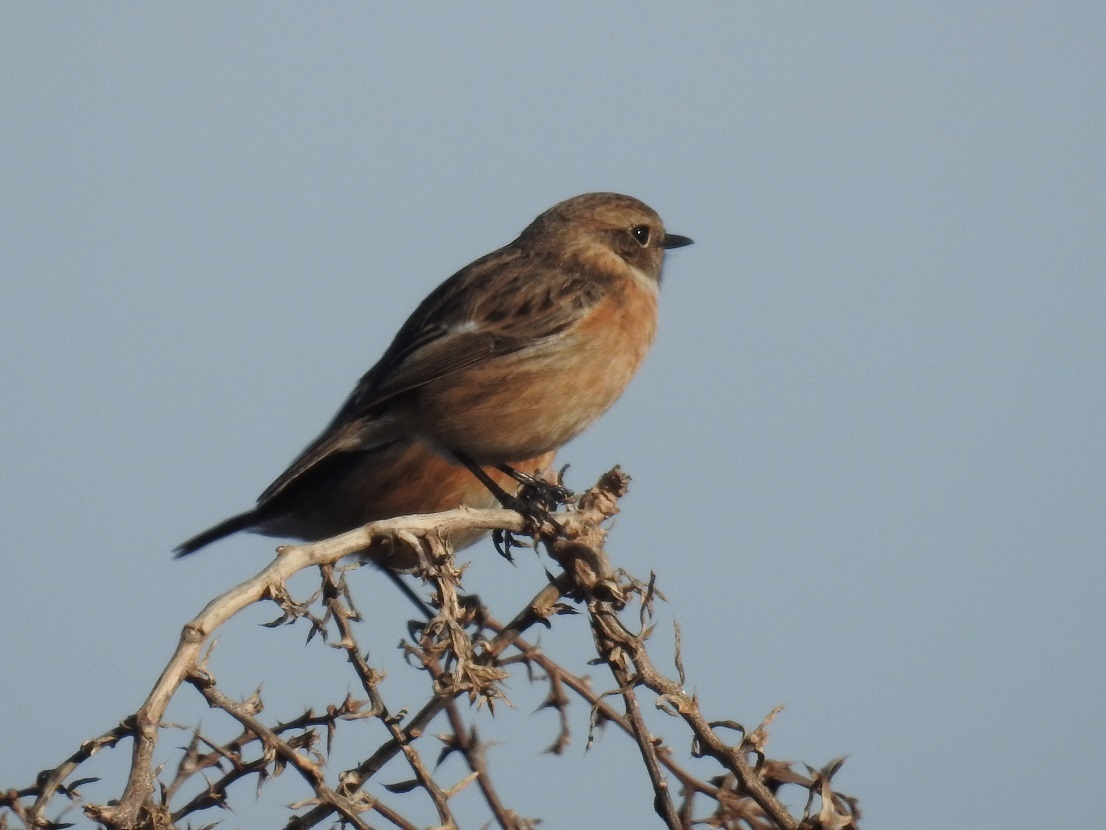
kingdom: Animalia
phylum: Chordata
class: Aves
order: Passeriformes
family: Muscicapidae
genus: Saxicola
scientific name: Saxicola rubicola
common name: European stonechat
